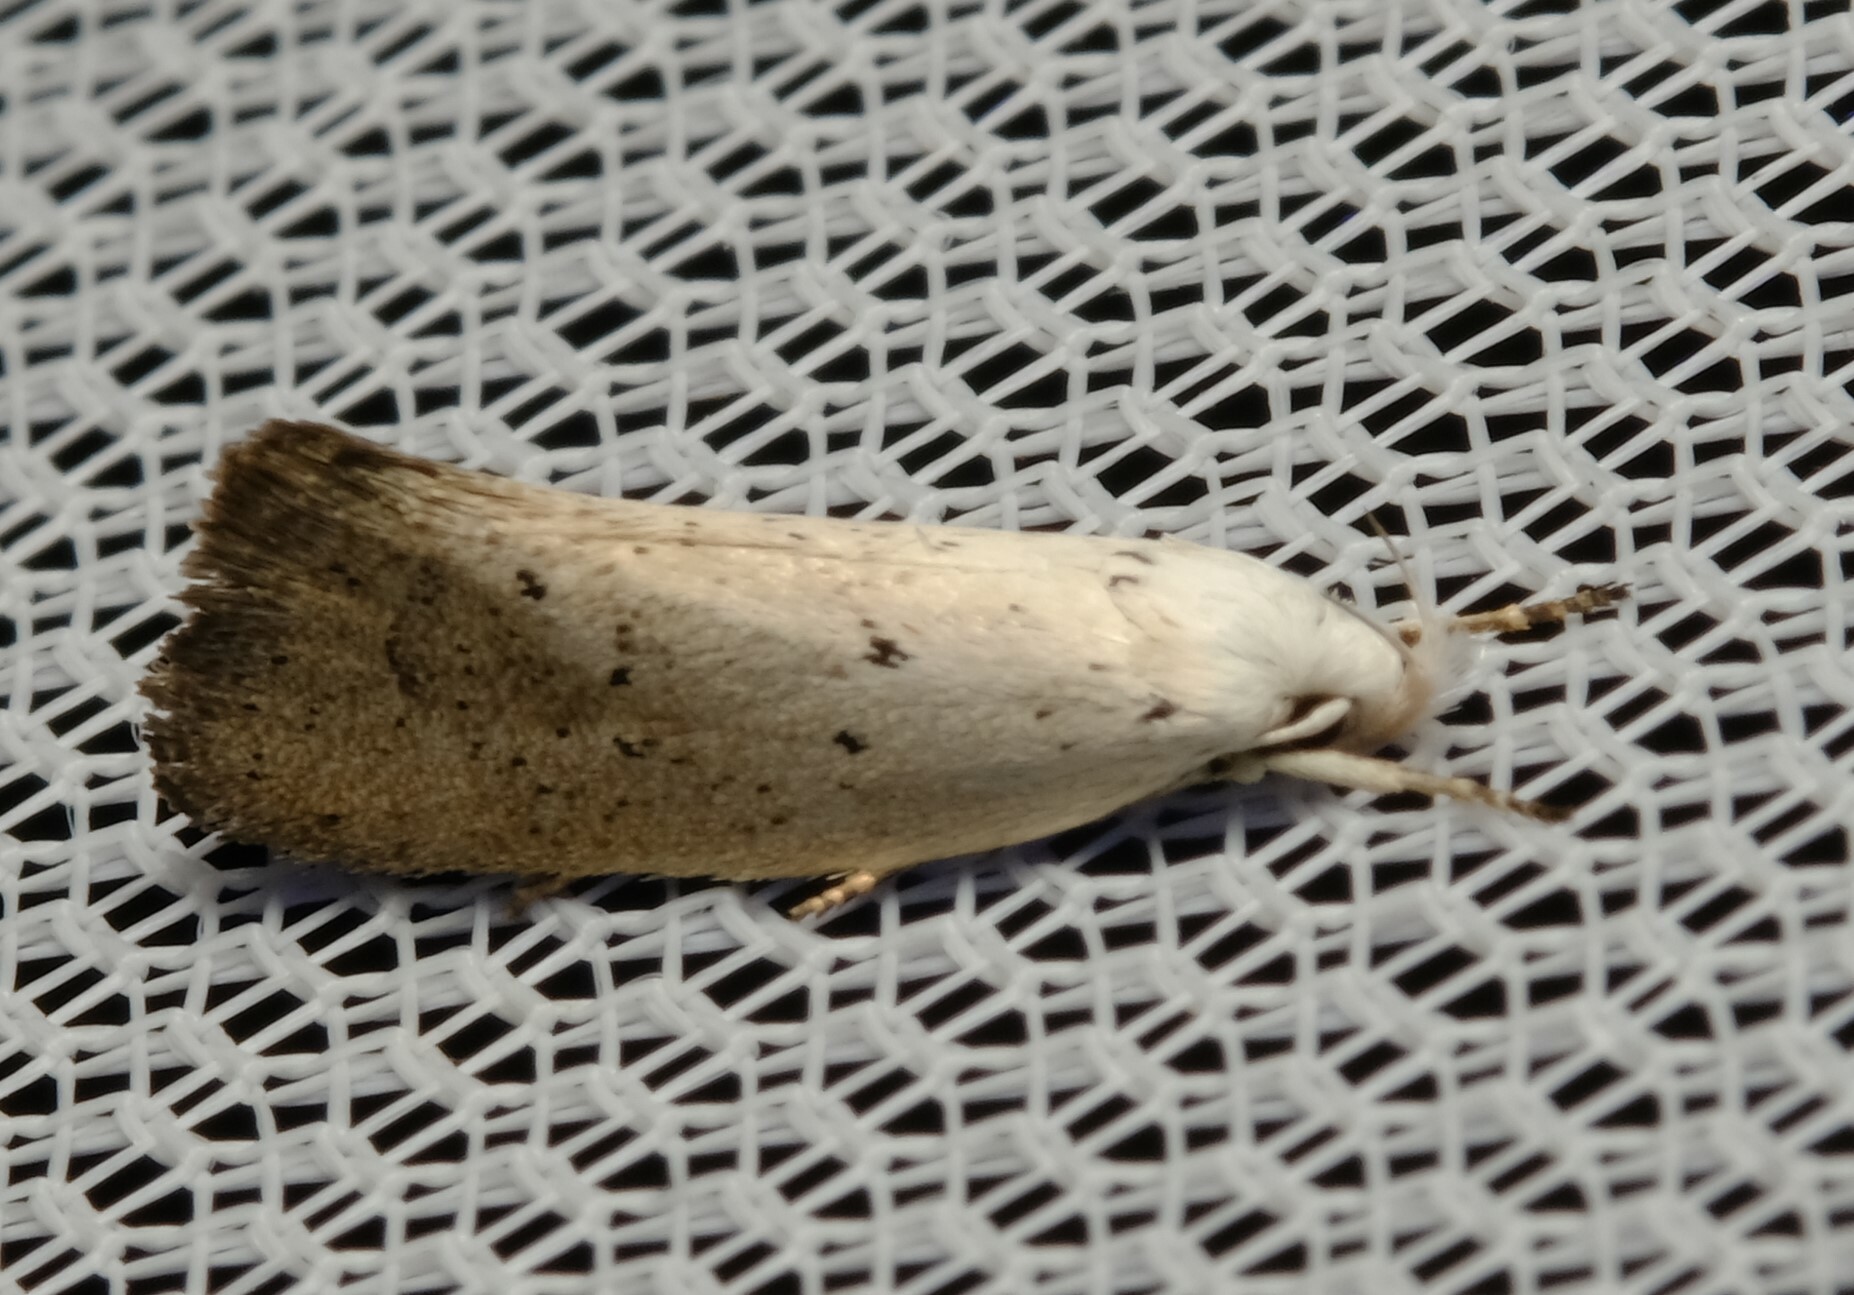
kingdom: Animalia
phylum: Arthropoda
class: Insecta
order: Lepidoptera
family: Oecophoridae
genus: Thalerotricha
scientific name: Thalerotricha mylicella
